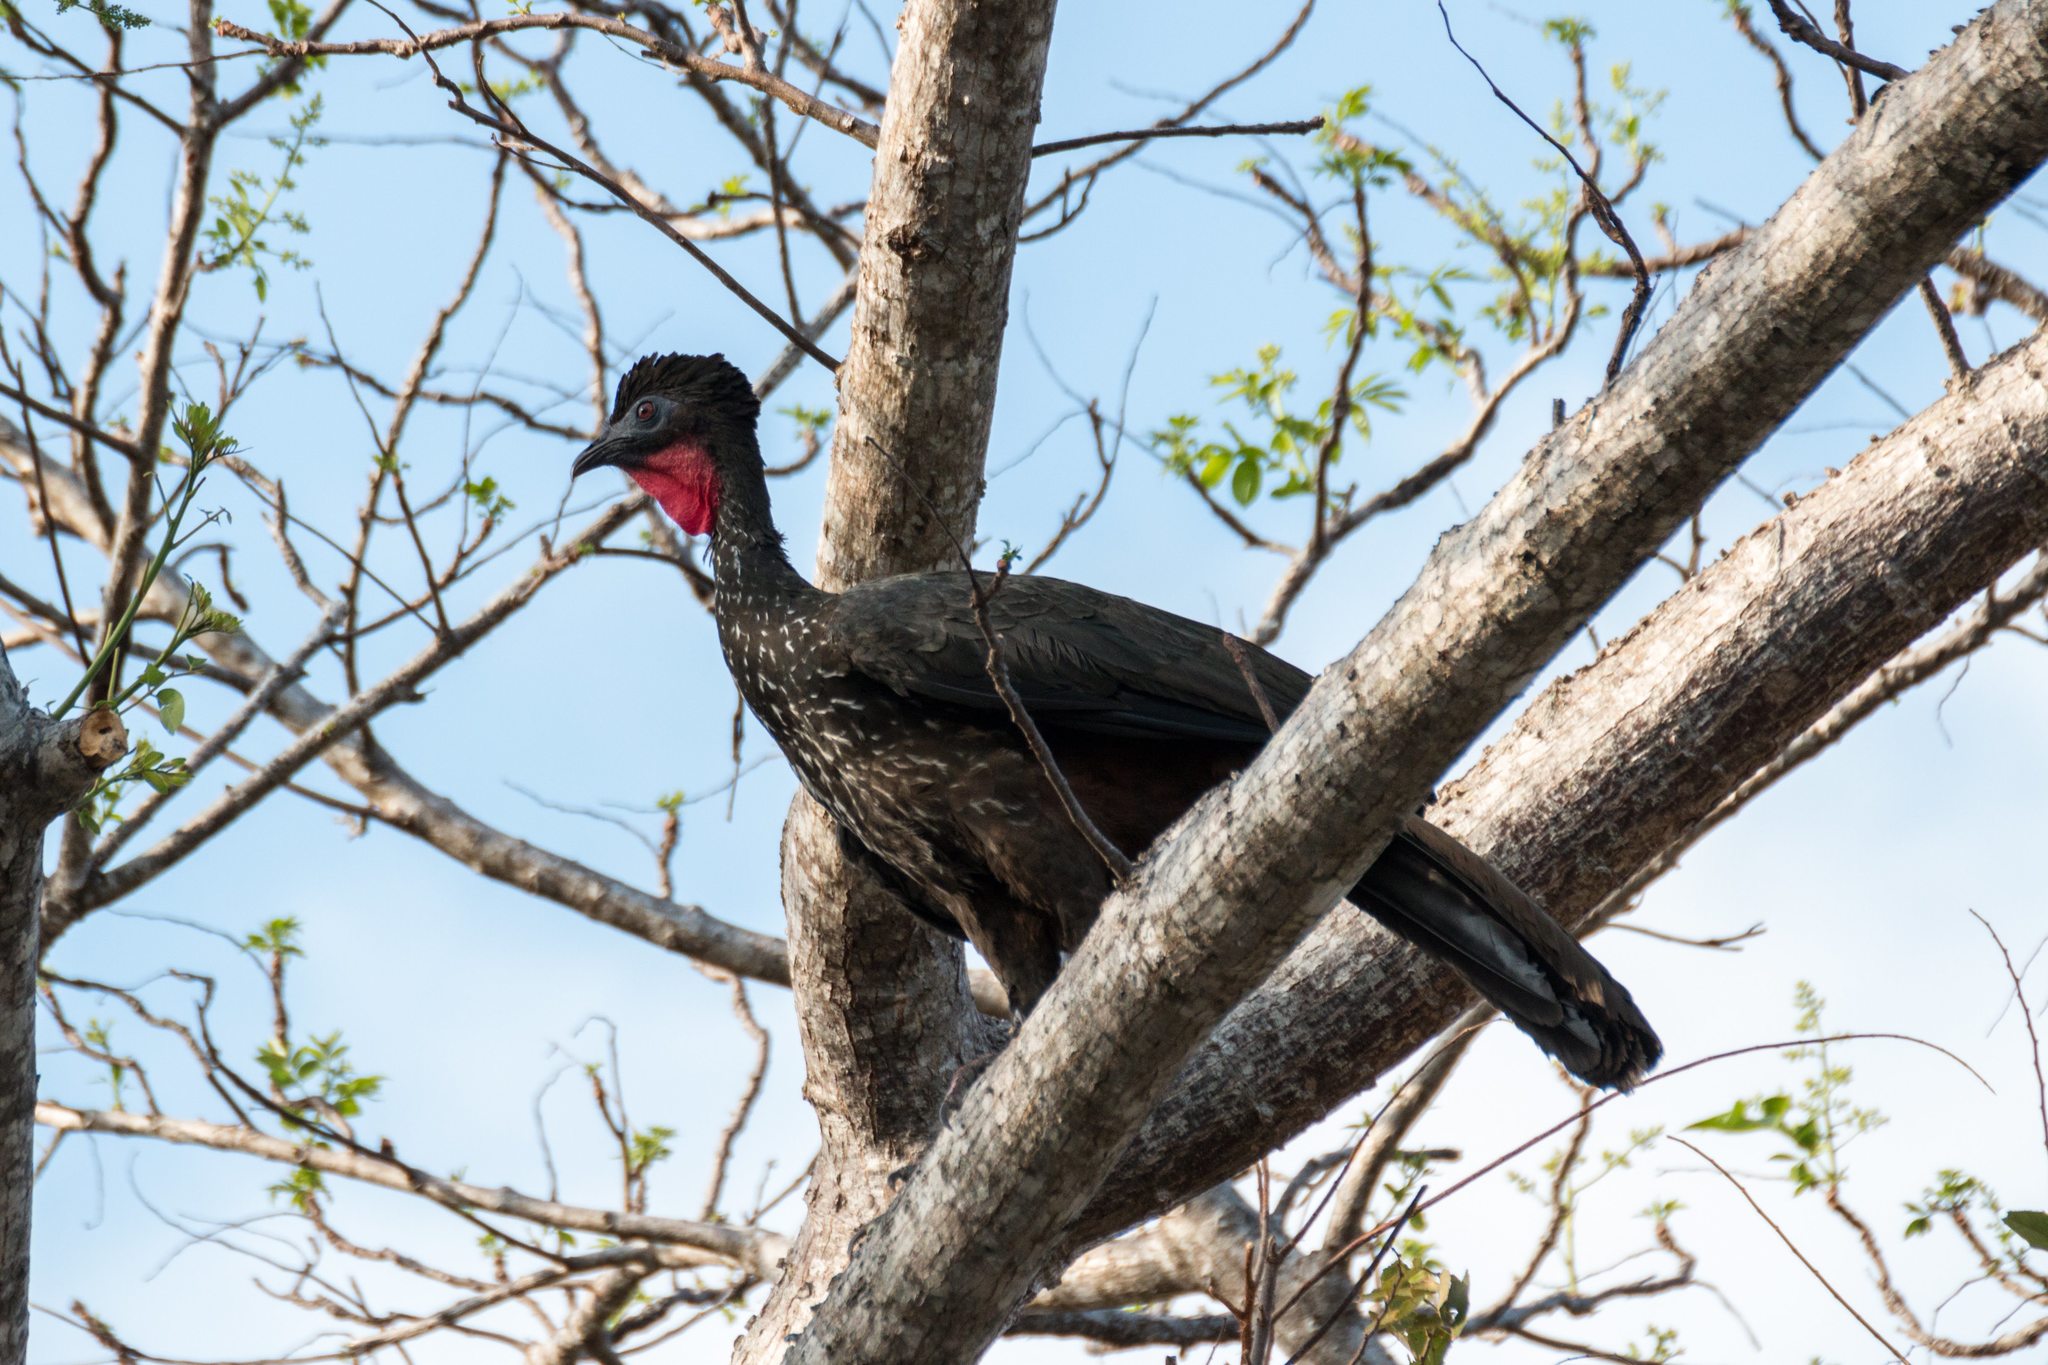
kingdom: Animalia
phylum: Chordata
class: Aves
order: Galliformes
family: Cracidae
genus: Penelope
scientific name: Penelope purpurascens
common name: Crested guan
